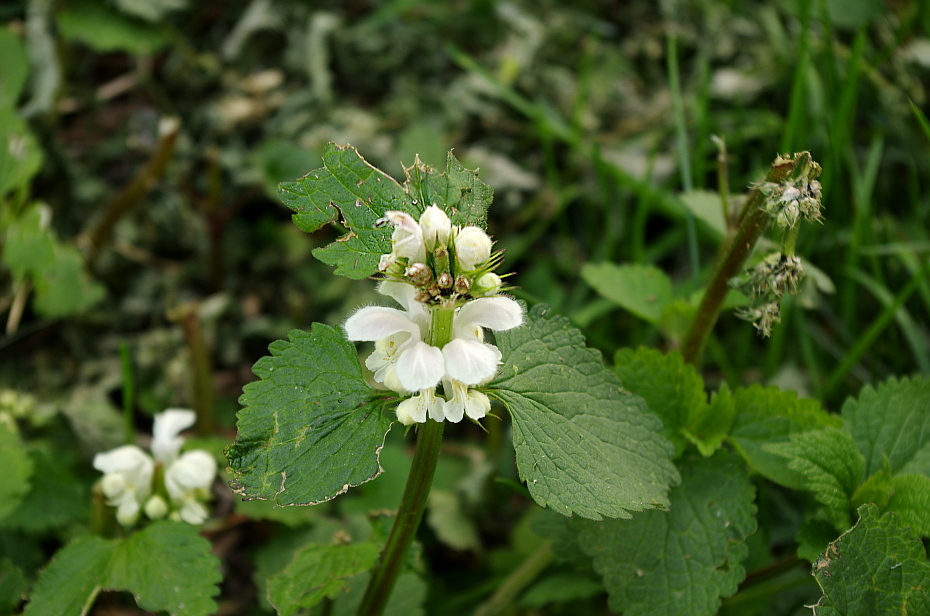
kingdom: Plantae
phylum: Tracheophyta
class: Magnoliopsida
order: Lamiales
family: Lamiaceae
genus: Lamium
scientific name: Lamium album
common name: White dead-nettle
